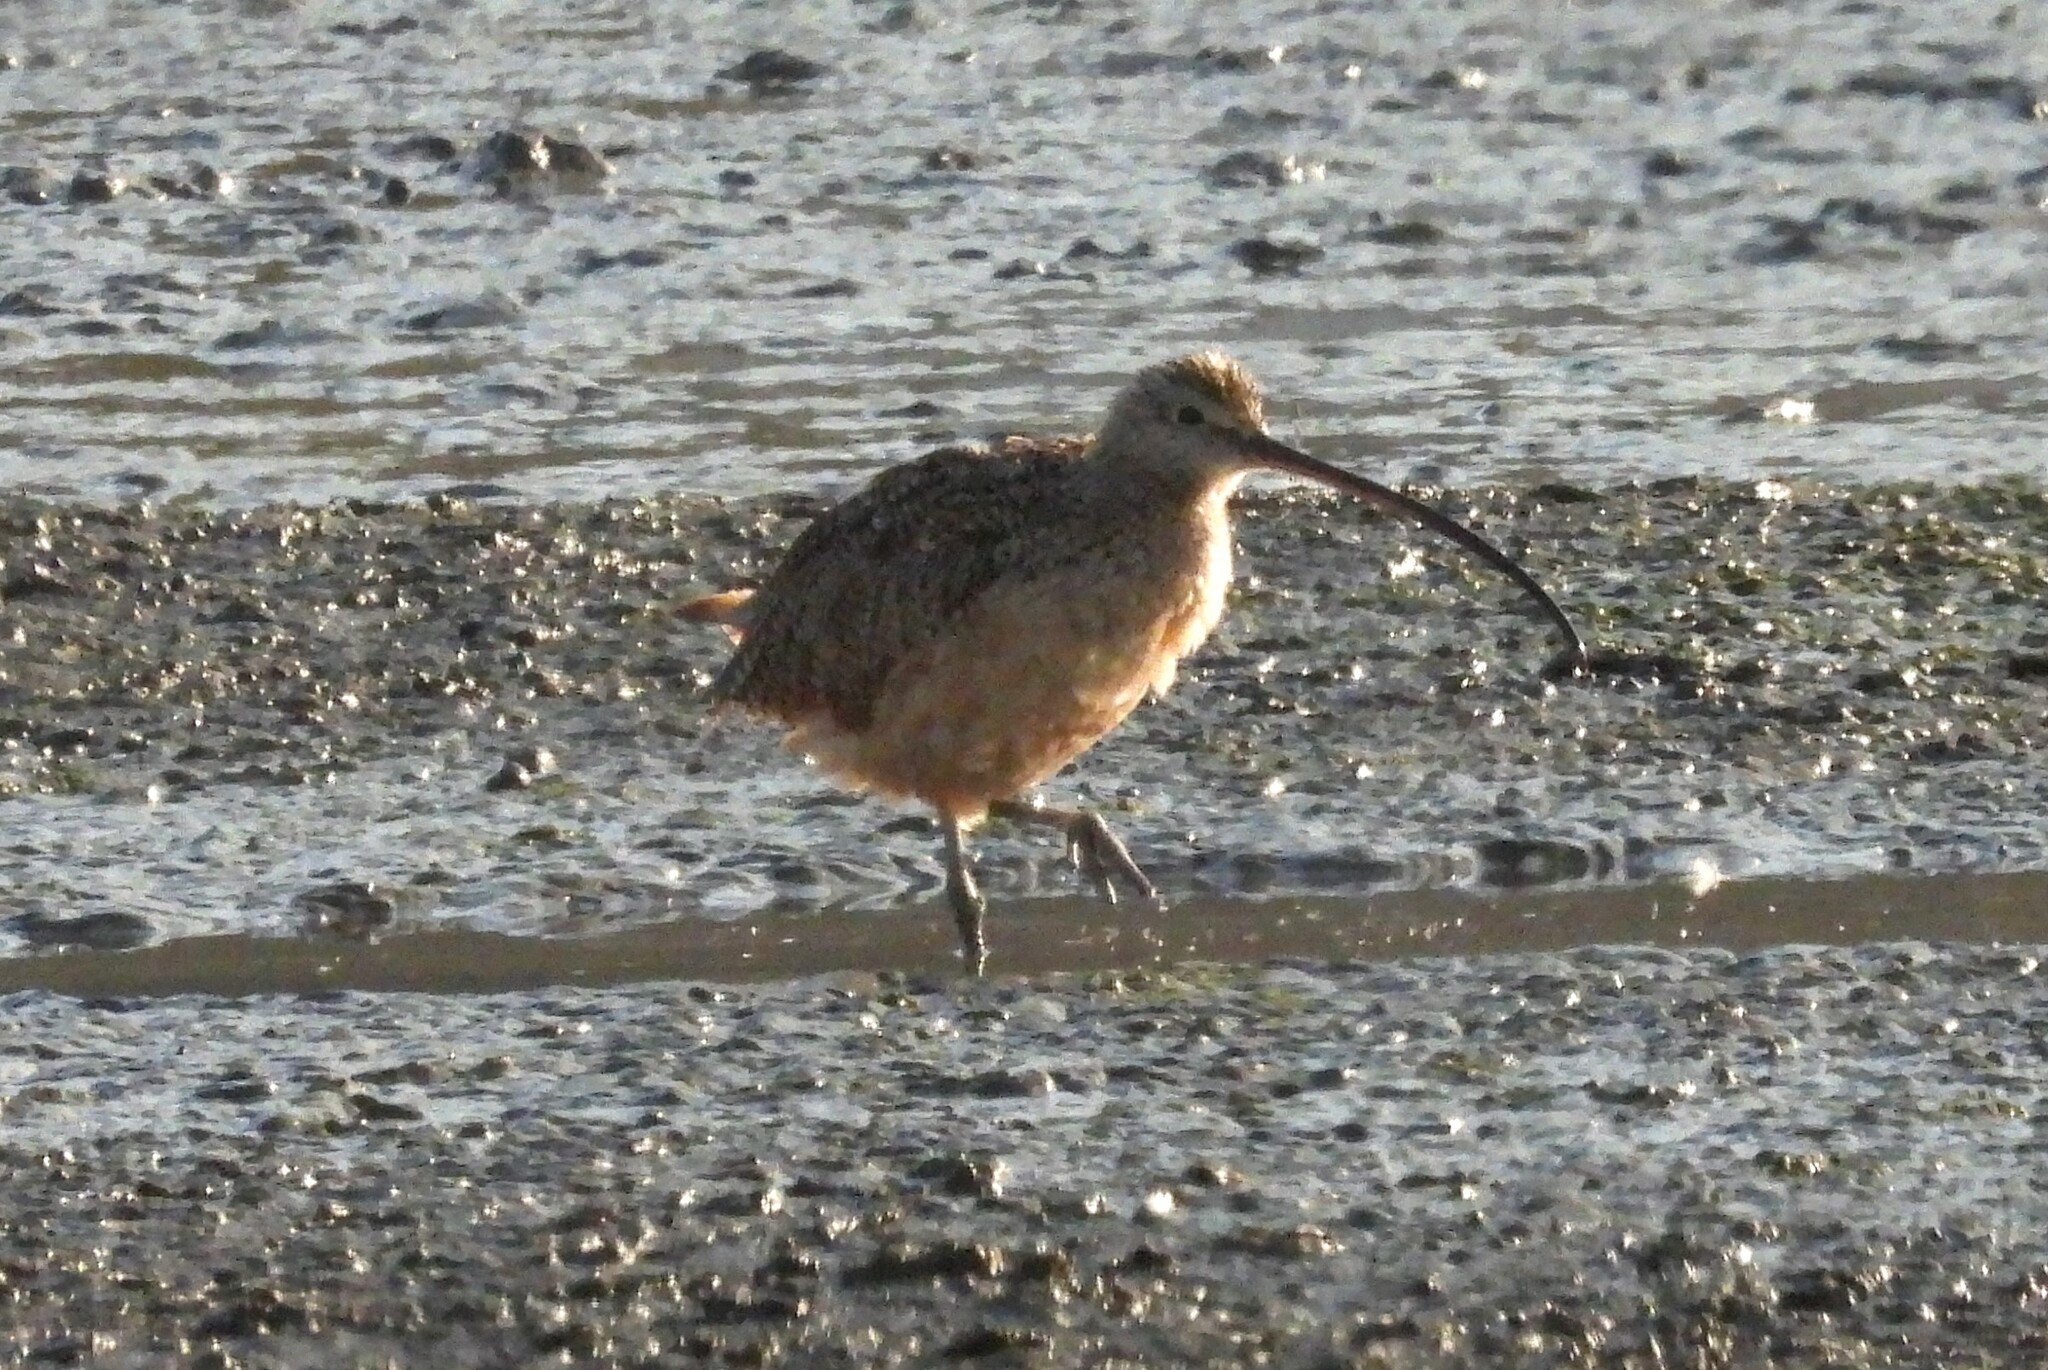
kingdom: Animalia
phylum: Chordata
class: Aves
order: Charadriiformes
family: Scolopacidae
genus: Numenius
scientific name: Numenius americanus
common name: Long-billed curlew
